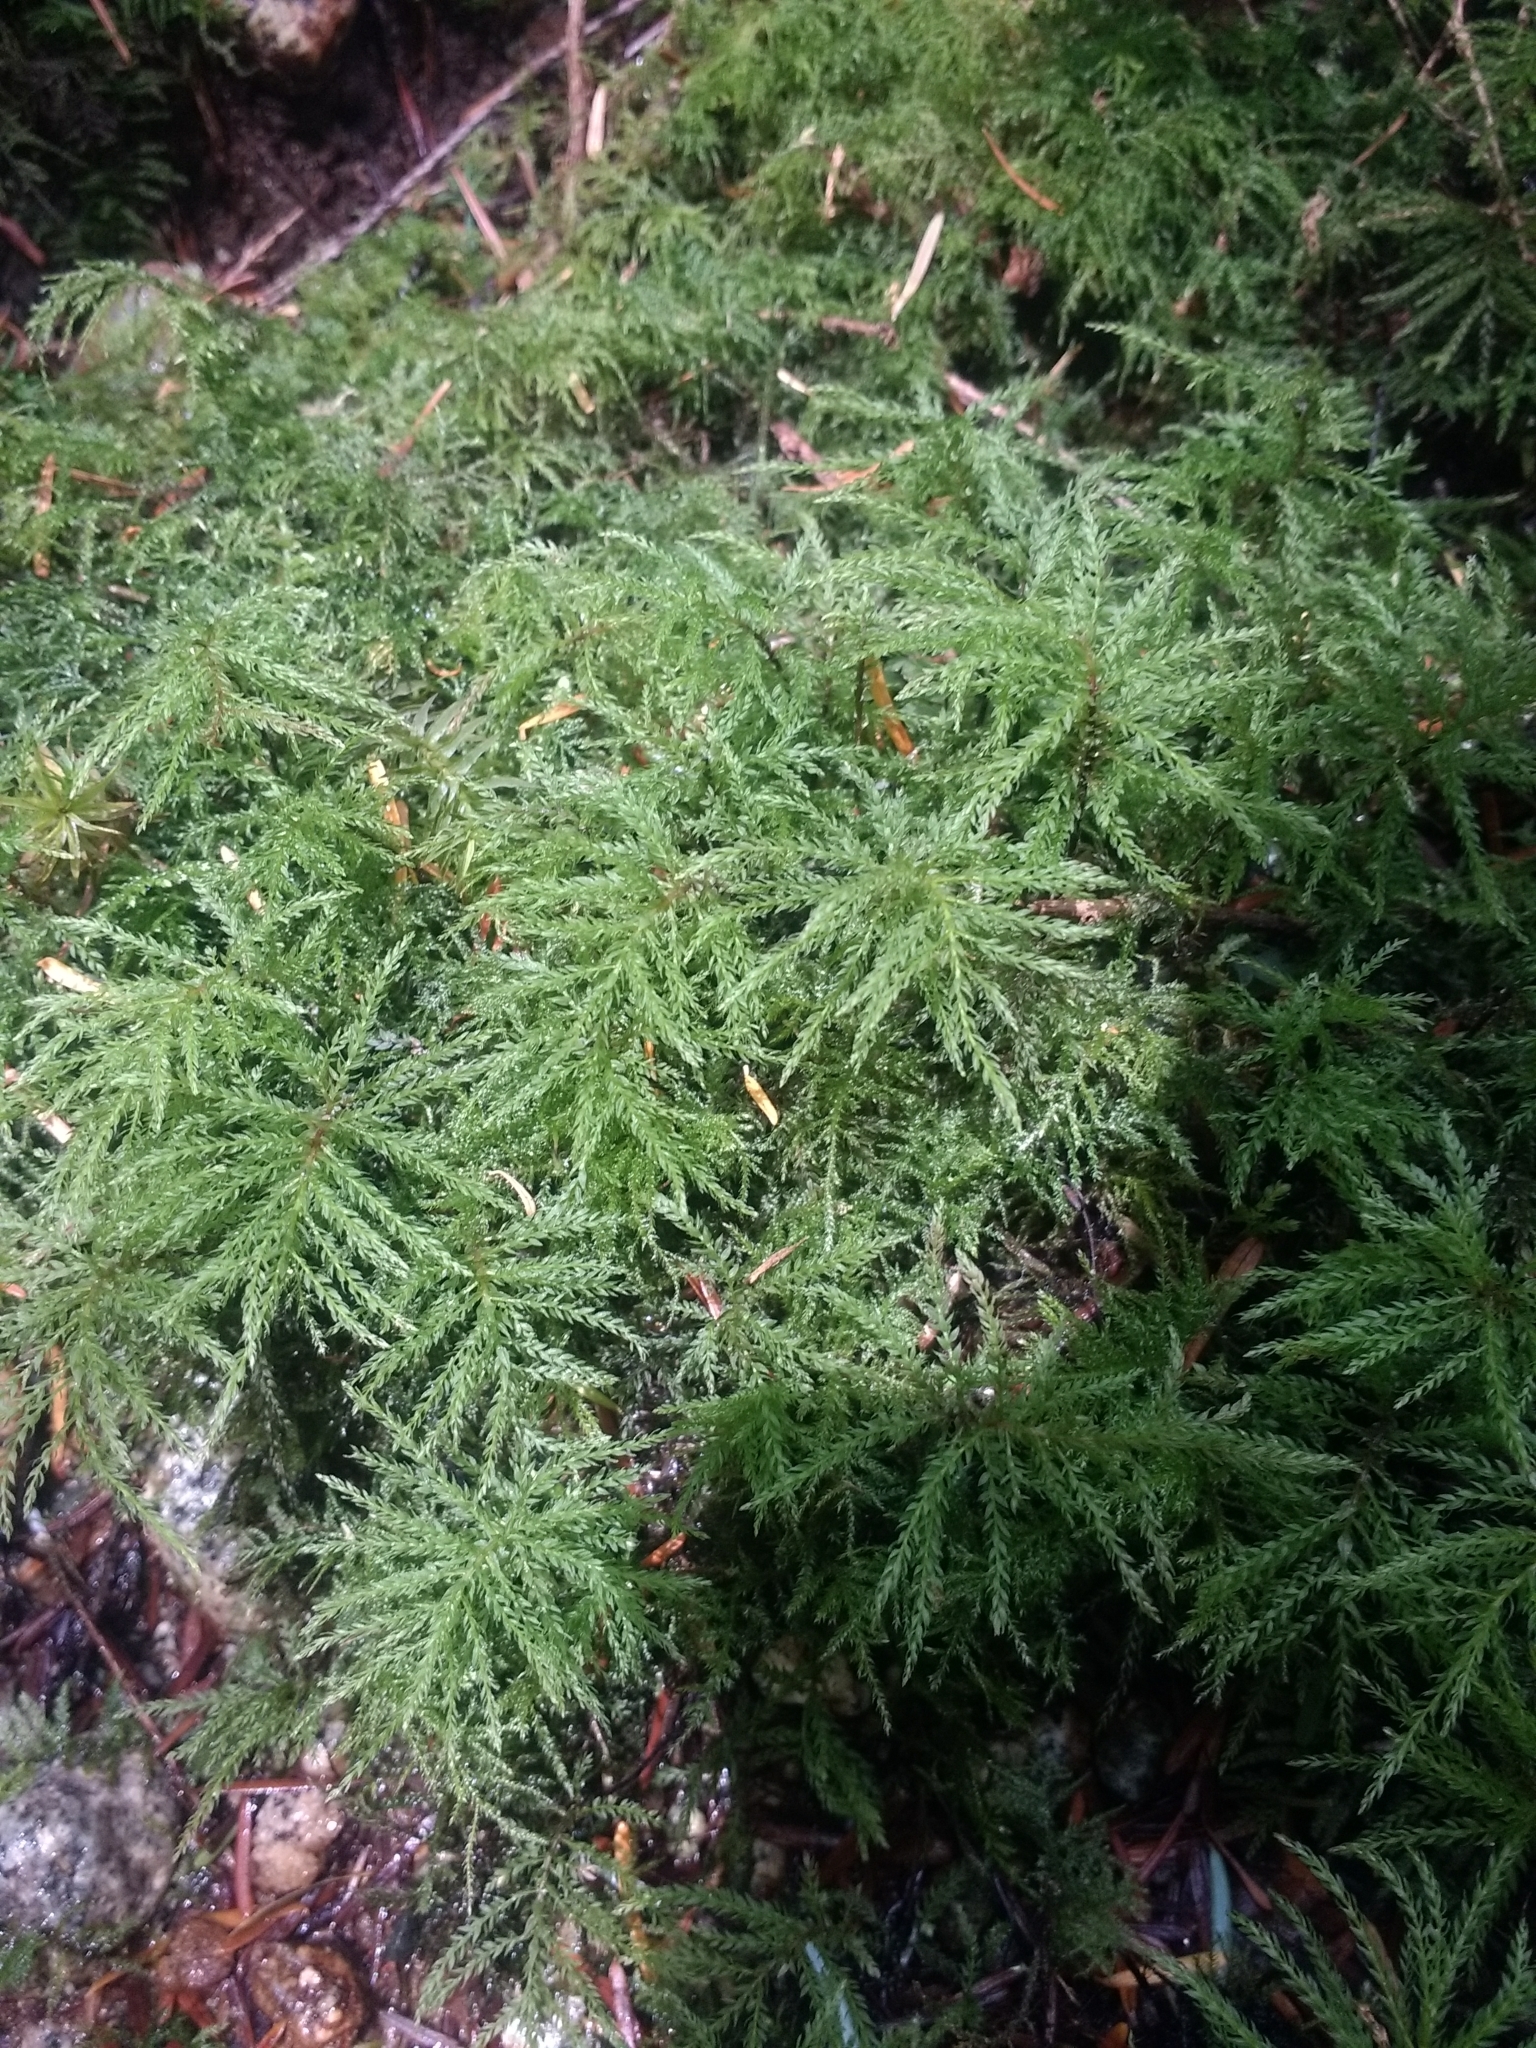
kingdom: Plantae
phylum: Bryophyta
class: Bryopsida
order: Bryales
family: Mniaceae
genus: Leucolepis
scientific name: Leucolepis acanthoneura
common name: Leucolepis umbrella moss
